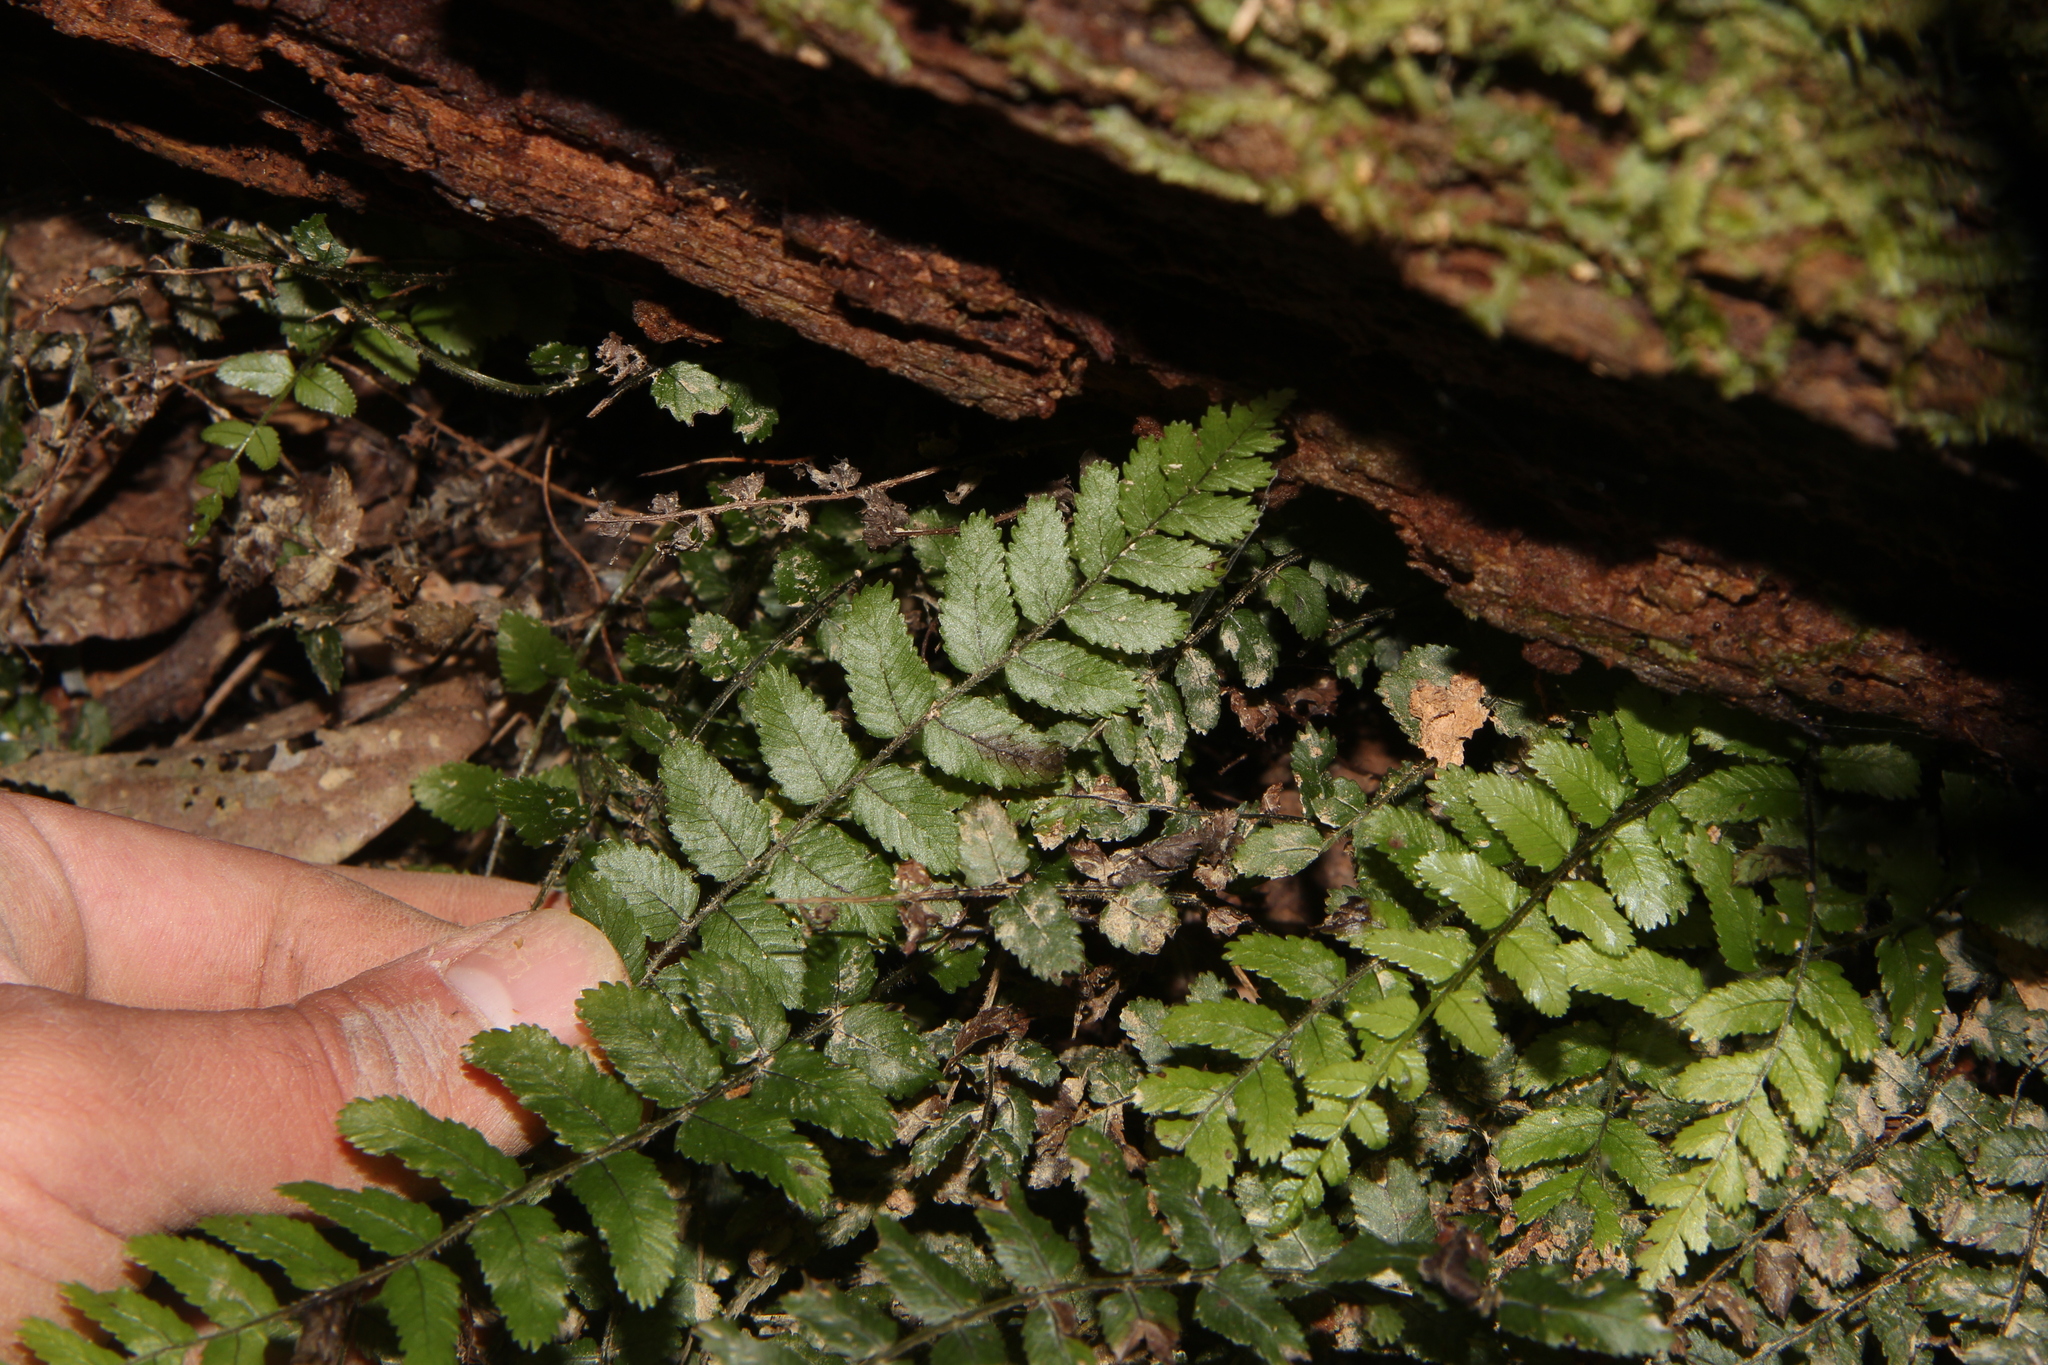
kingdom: Plantae
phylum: Tracheophyta
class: Polypodiopsida
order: Polypodiales
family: Blechnaceae
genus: Icarus
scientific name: Icarus filiformis
